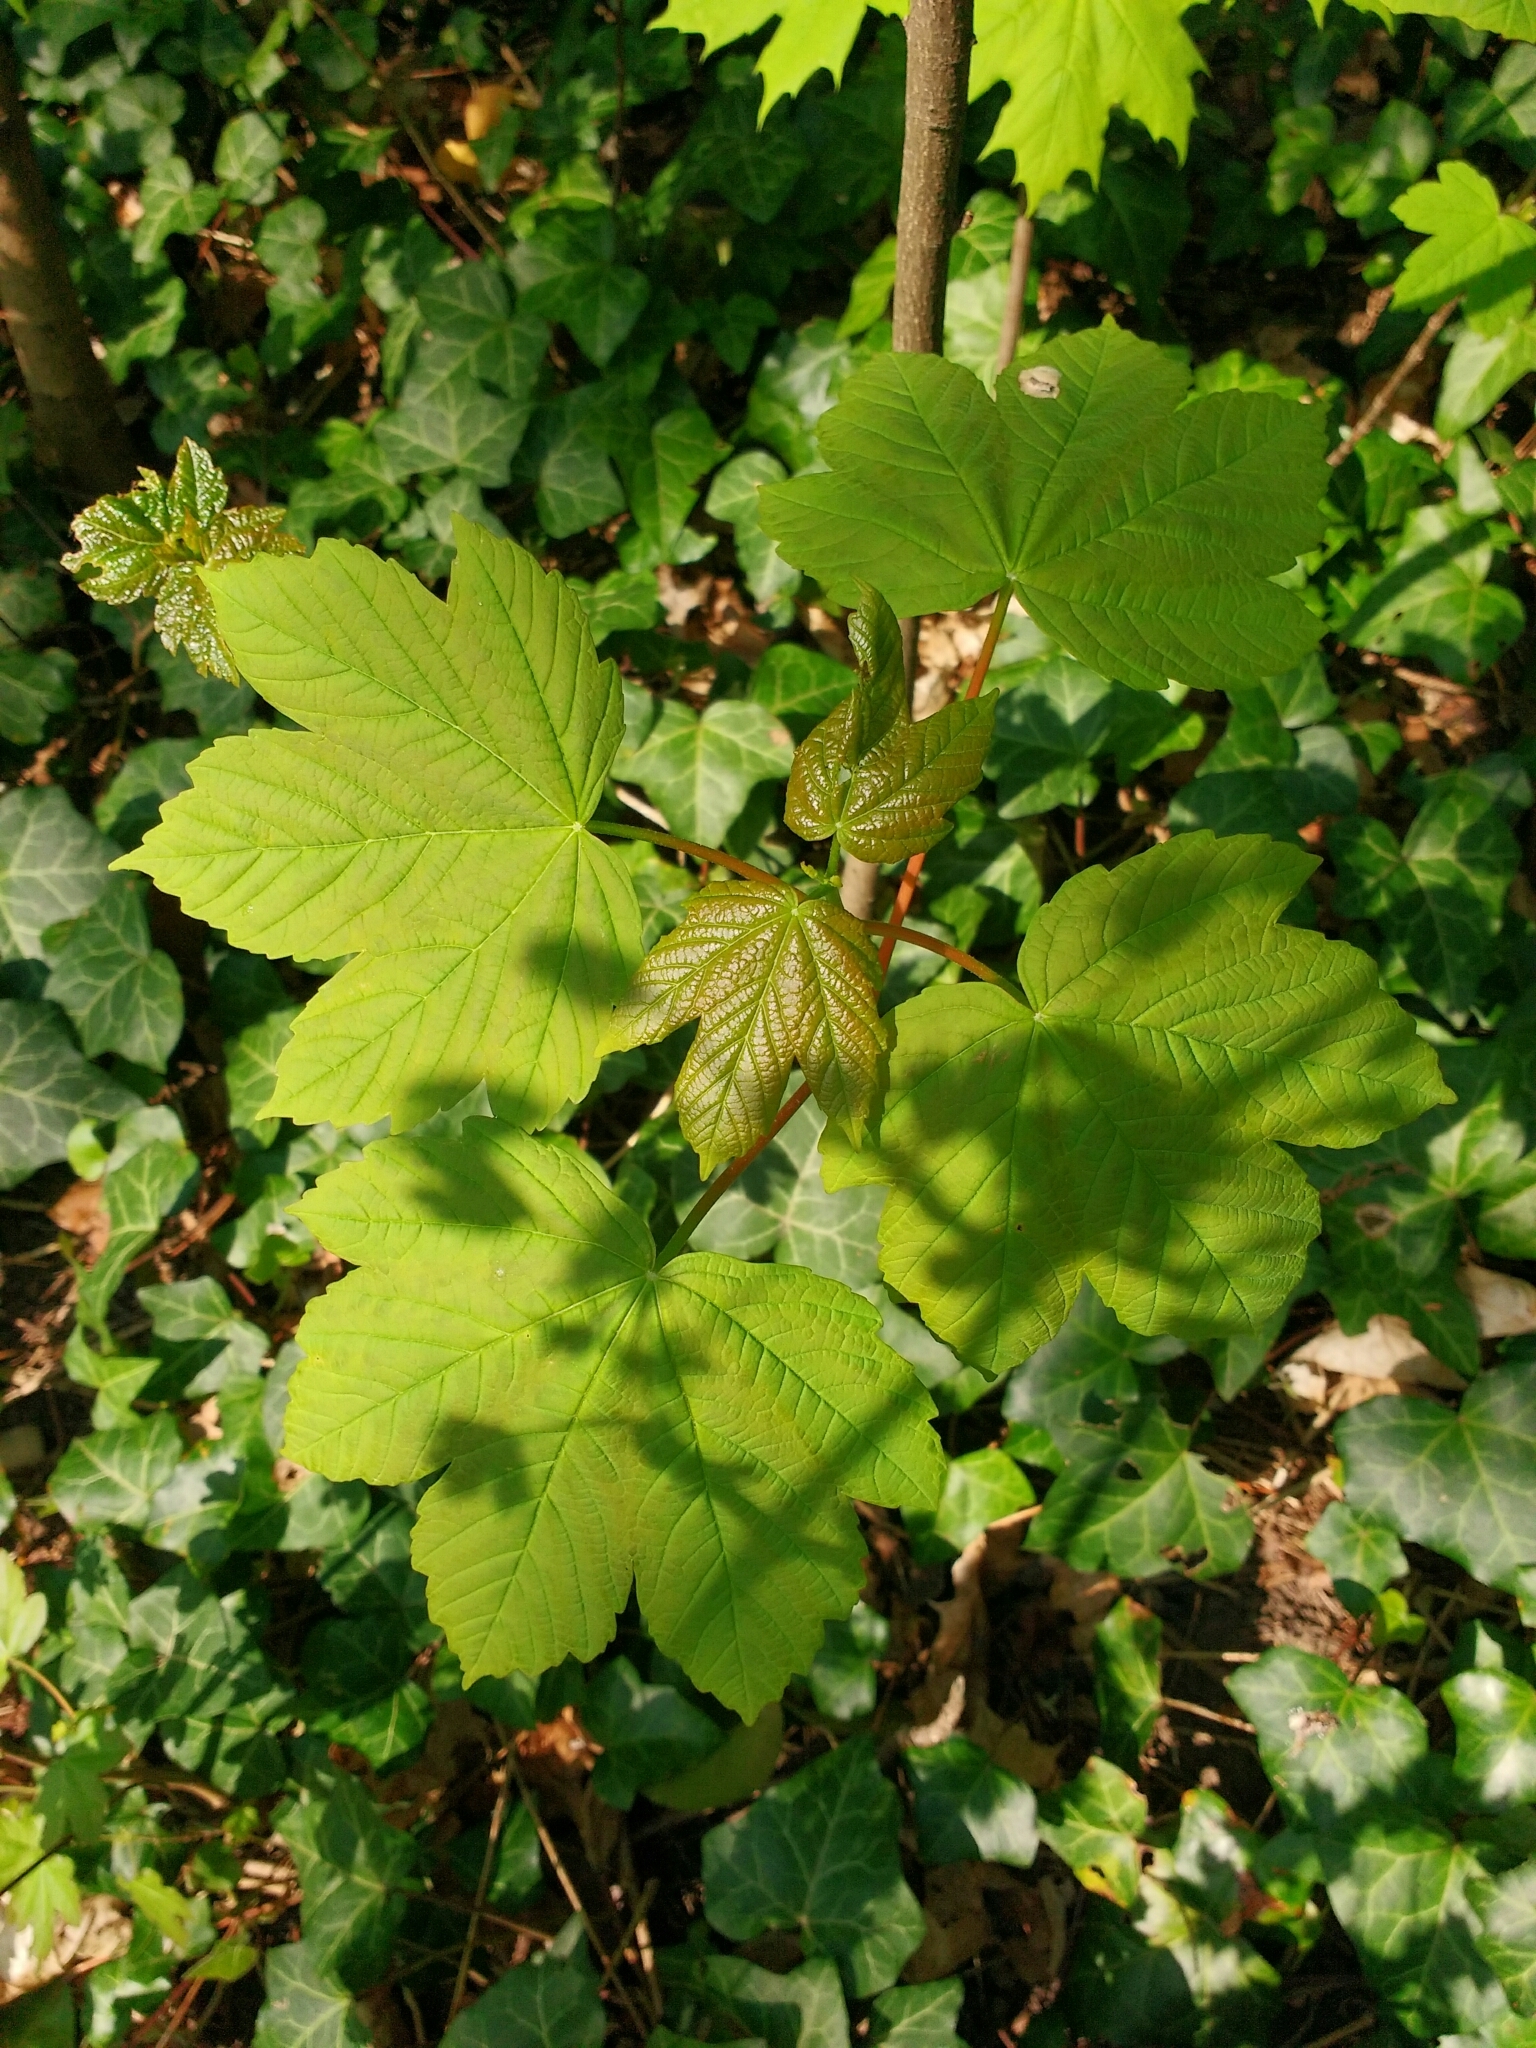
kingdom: Plantae
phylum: Tracheophyta
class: Magnoliopsida
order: Sapindales
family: Sapindaceae
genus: Acer
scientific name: Acer pseudoplatanus
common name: Sycamore
